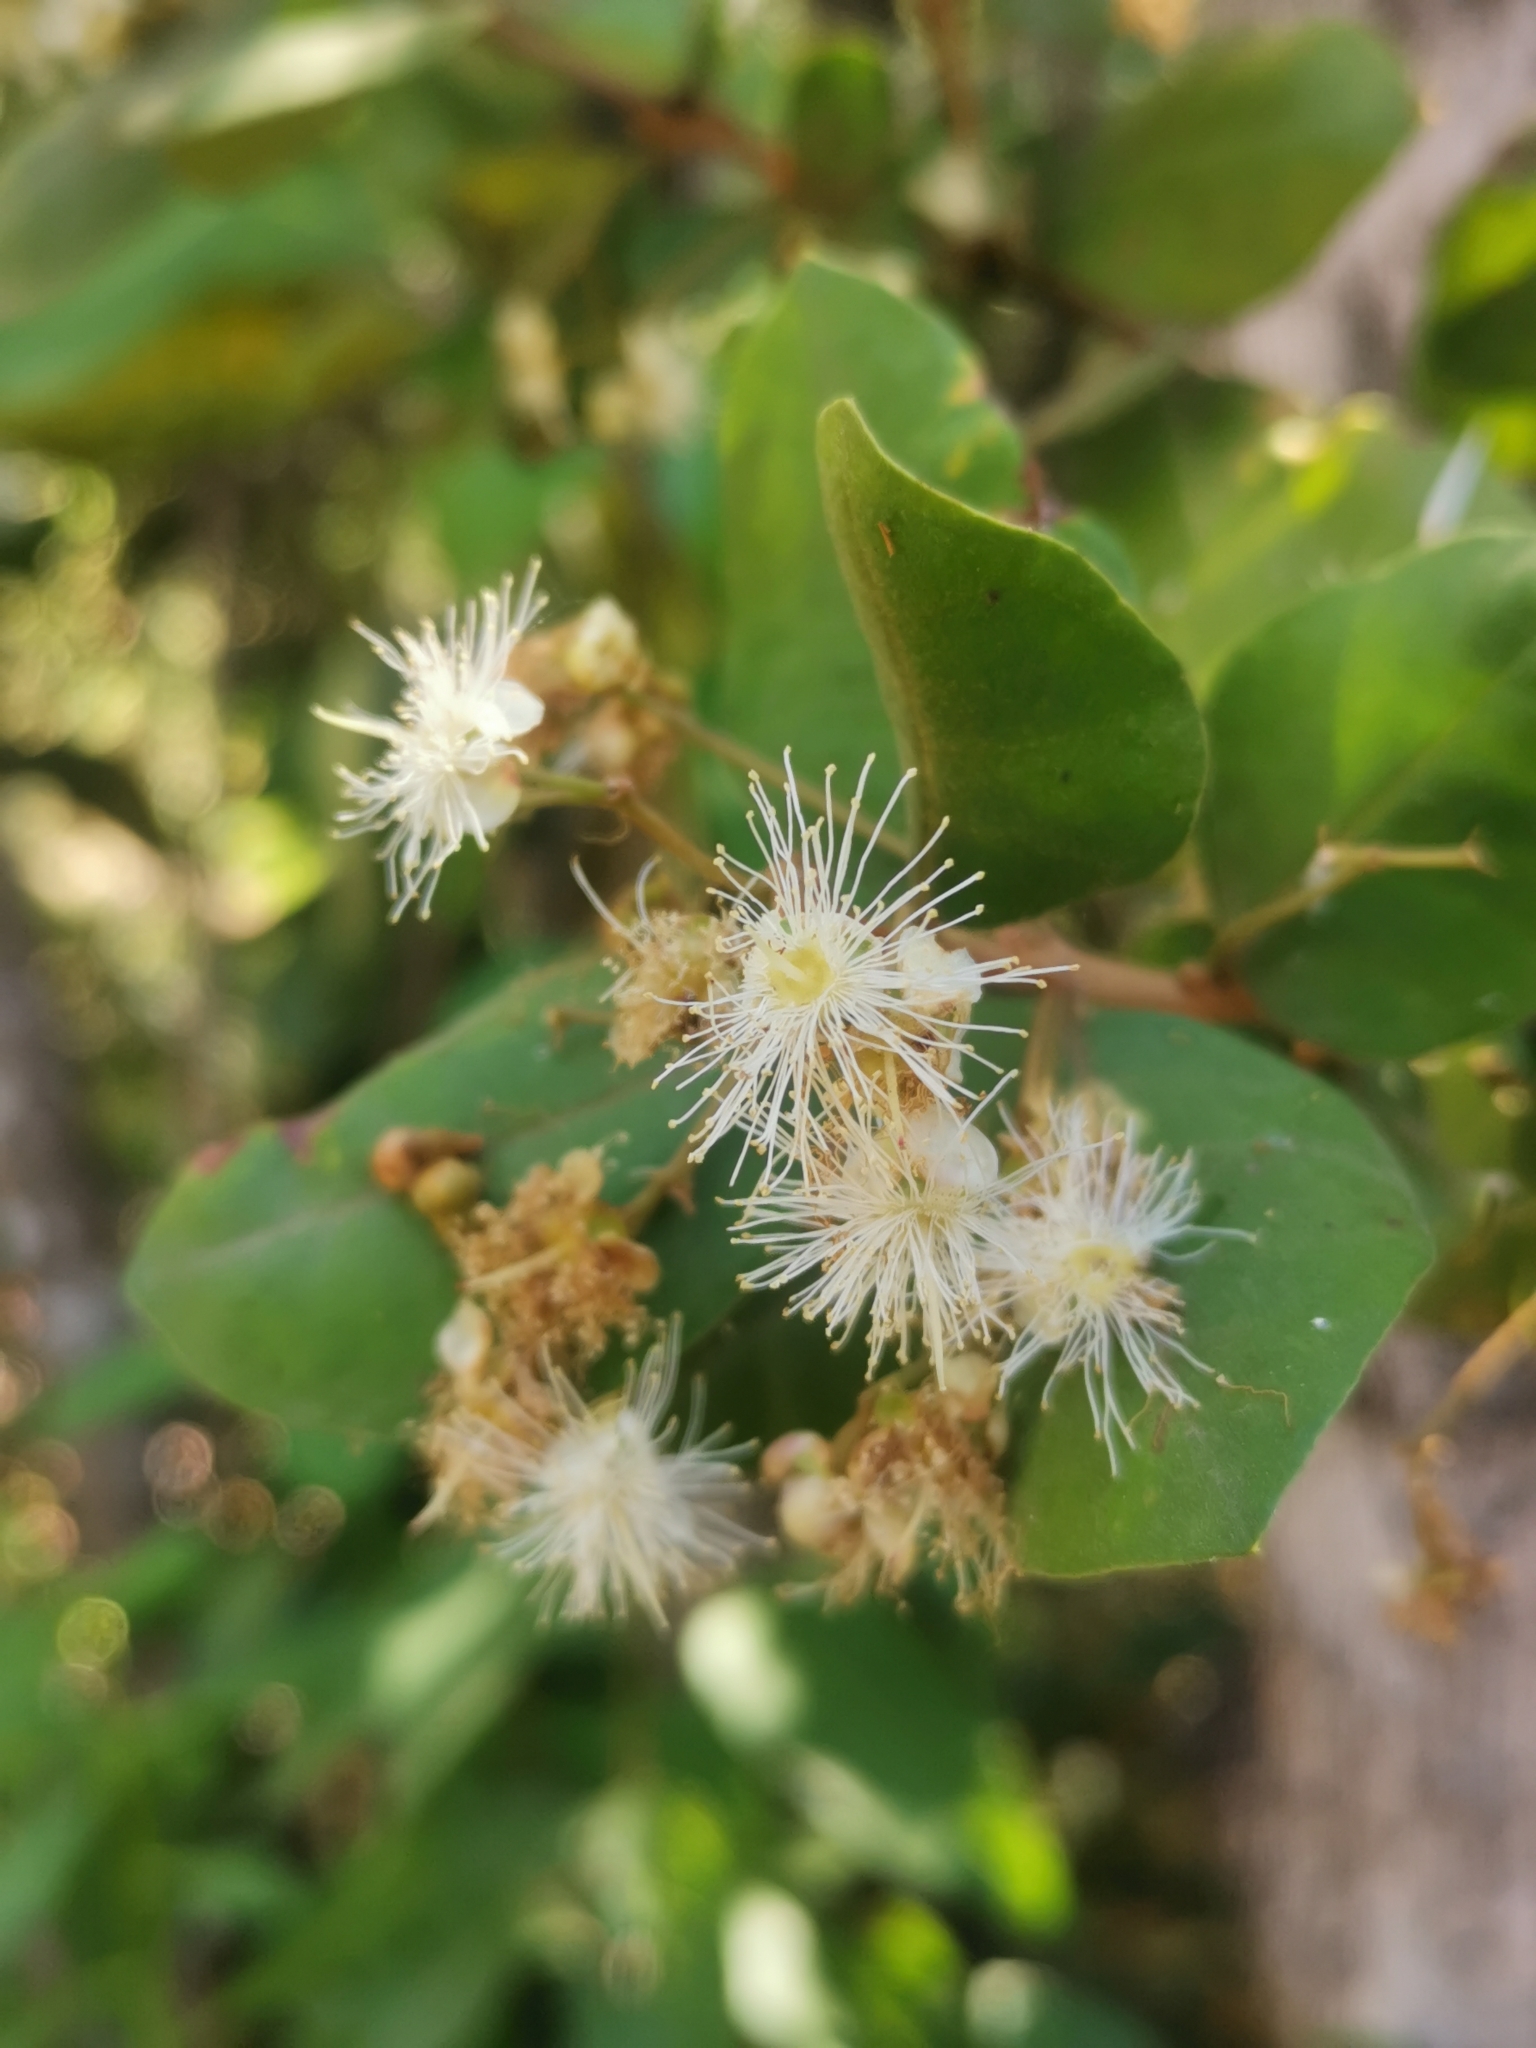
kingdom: Plantae
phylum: Tracheophyta
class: Magnoliopsida
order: Myrtales
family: Myrtaceae
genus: Myrceugenia
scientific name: Myrceugenia exsucca
